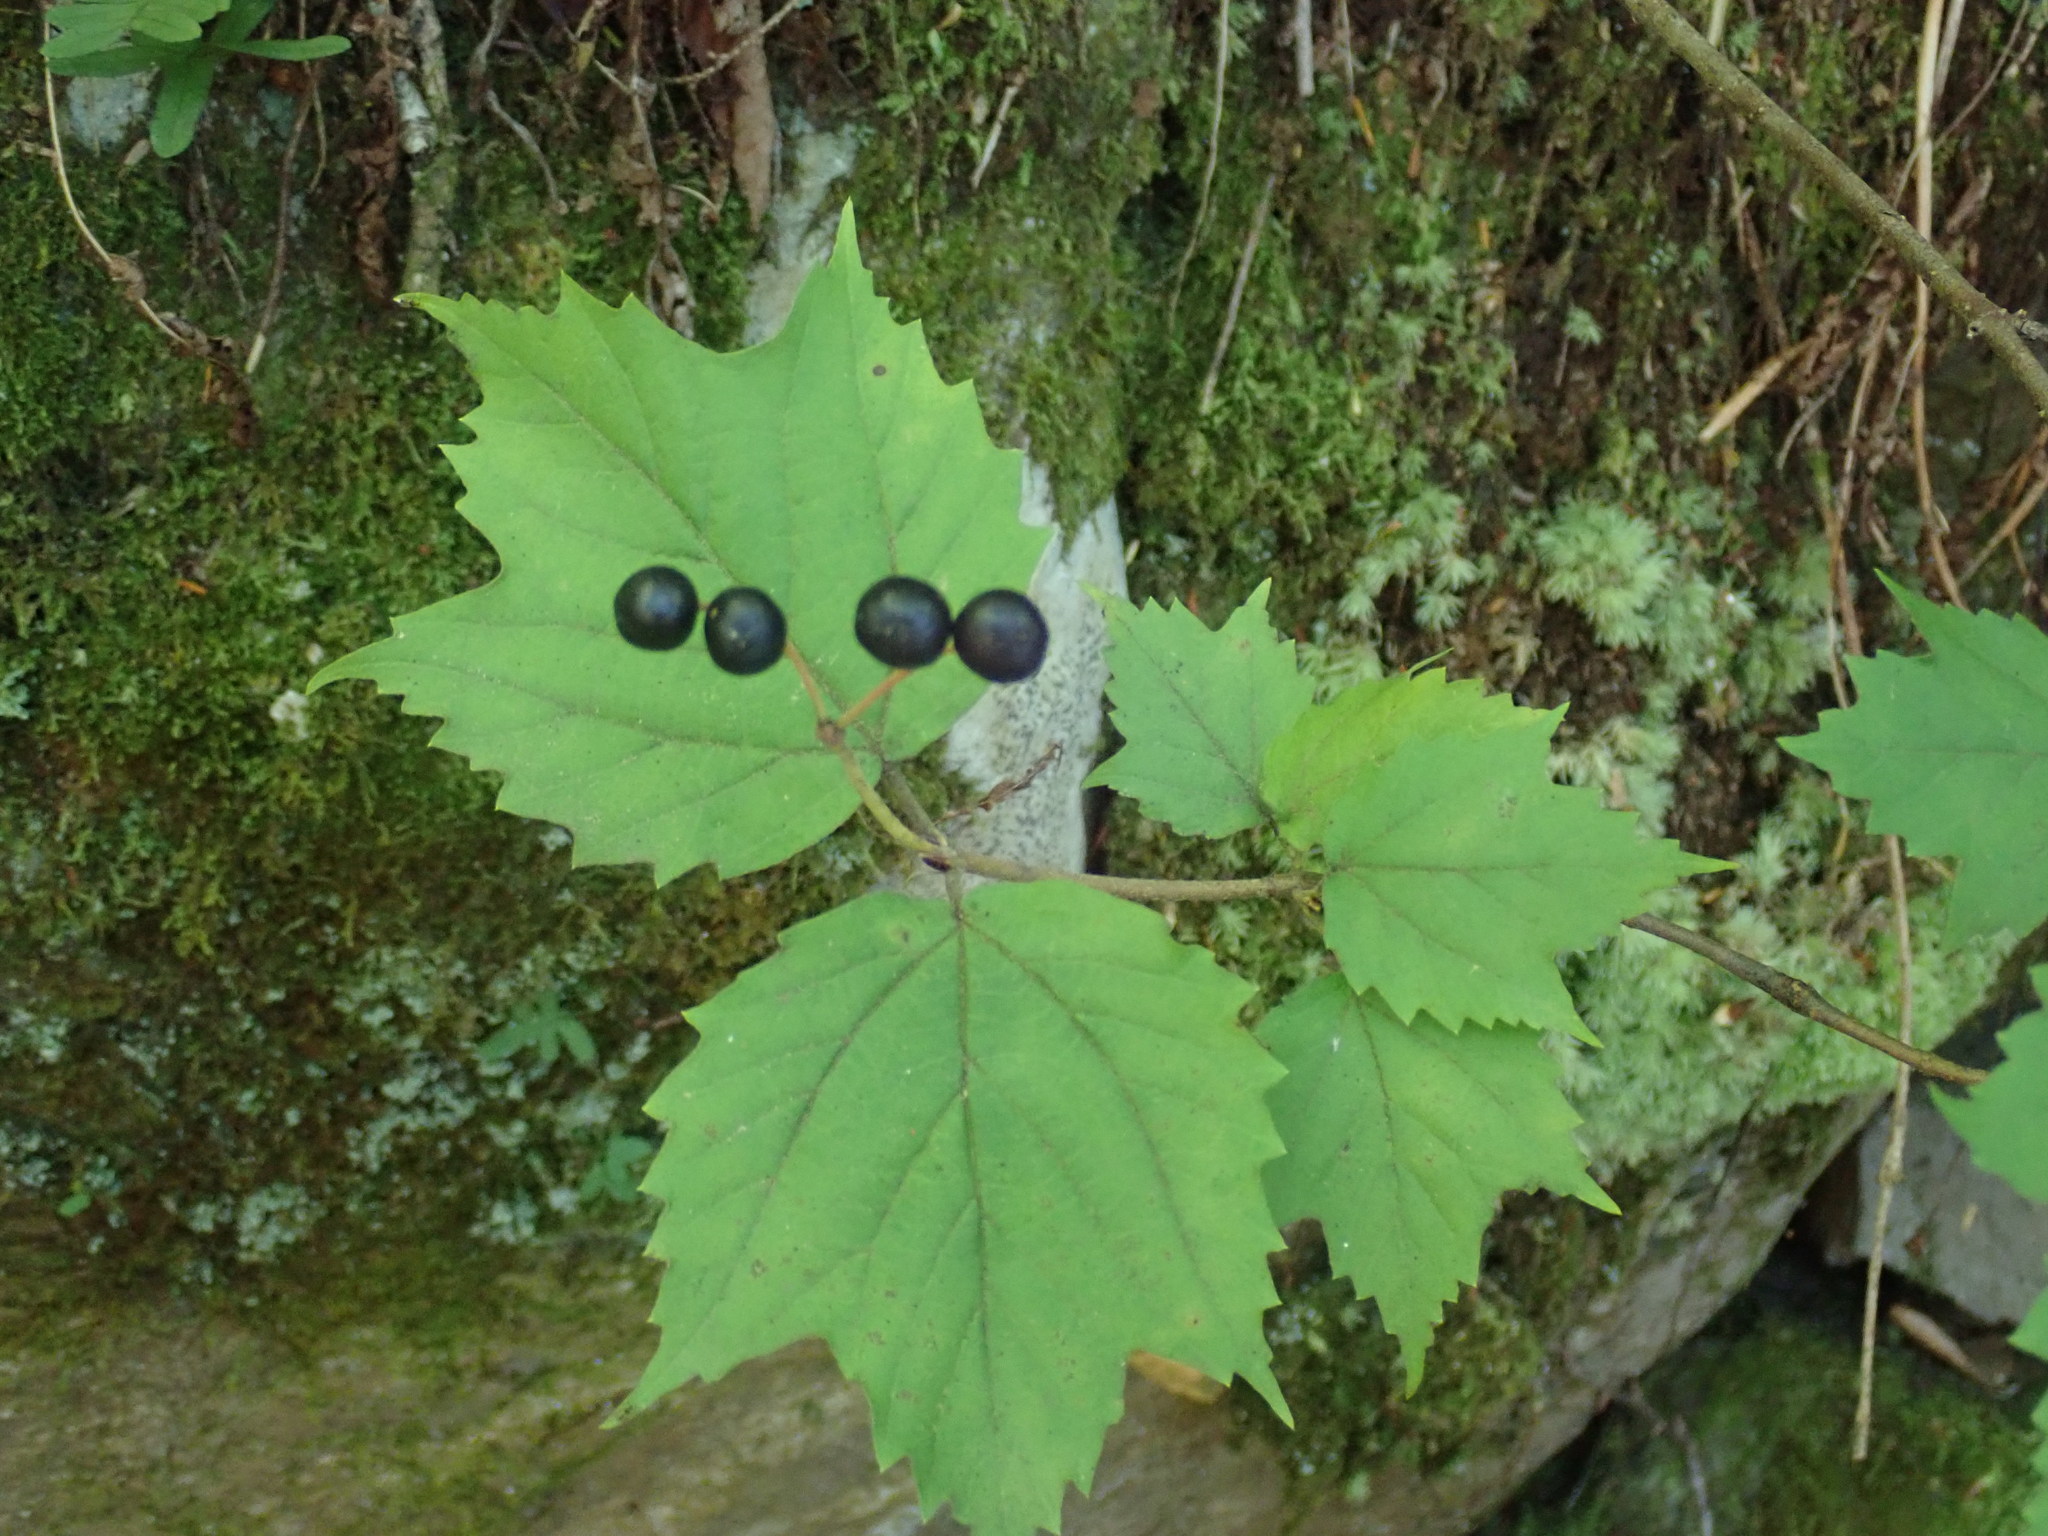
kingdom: Plantae
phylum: Tracheophyta
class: Magnoliopsida
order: Dipsacales
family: Viburnaceae
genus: Viburnum
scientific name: Viburnum acerifolium
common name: Dockmackie
